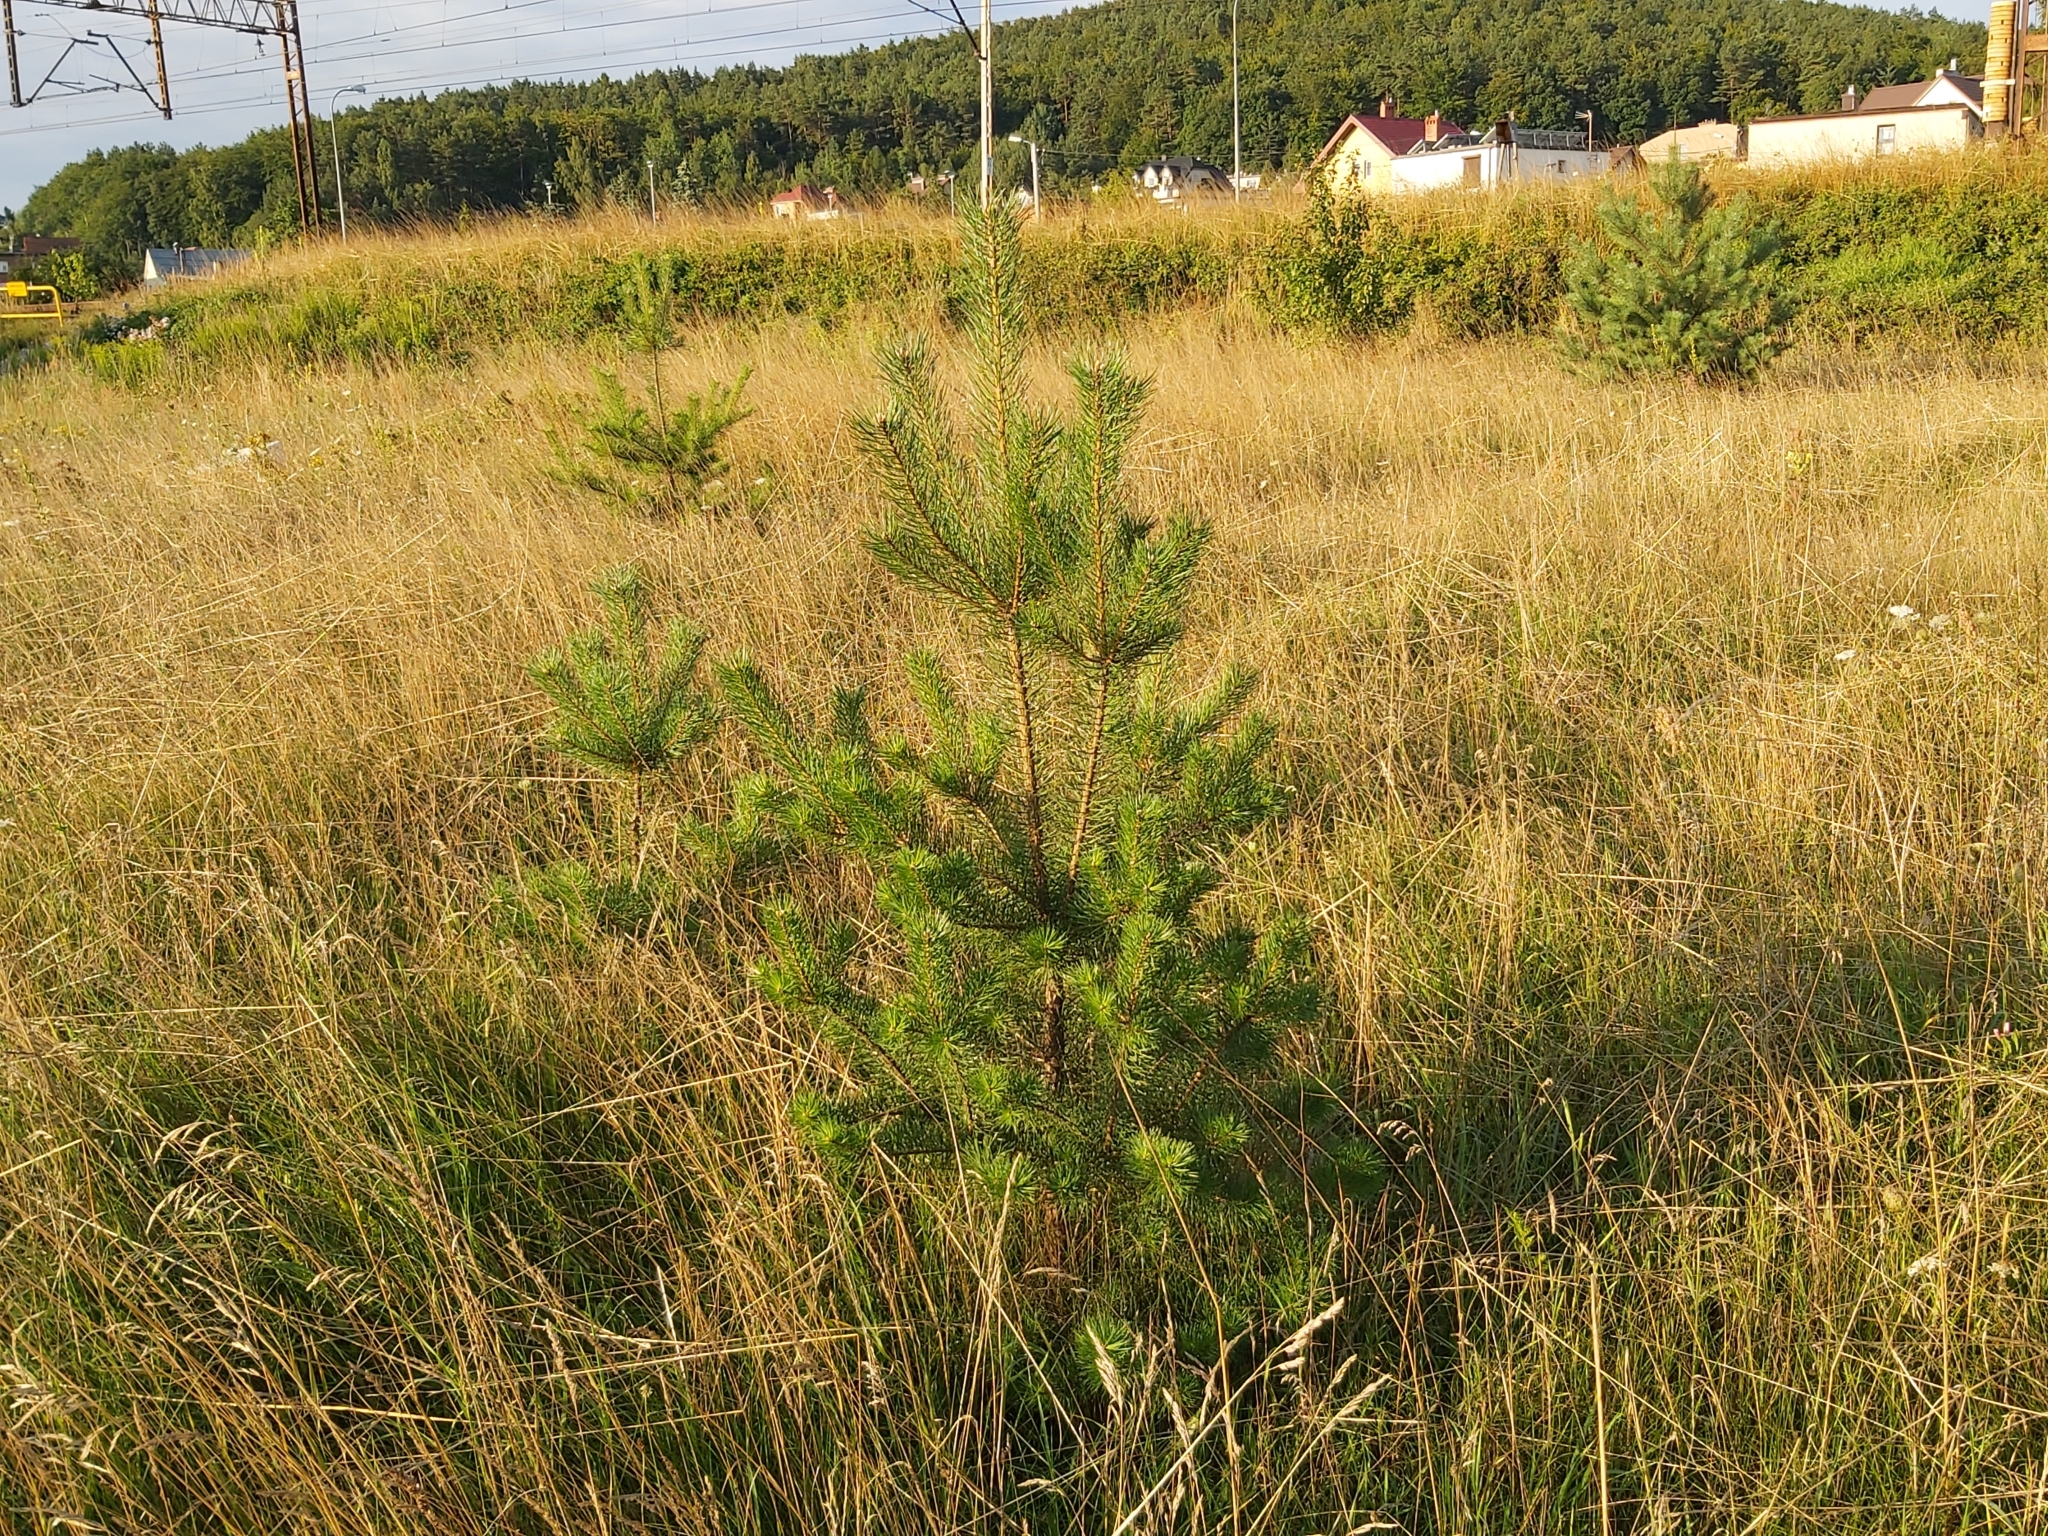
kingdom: Plantae
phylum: Tracheophyta
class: Pinopsida
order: Pinales
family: Pinaceae
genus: Pinus
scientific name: Pinus sylvestris
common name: Scots pine
